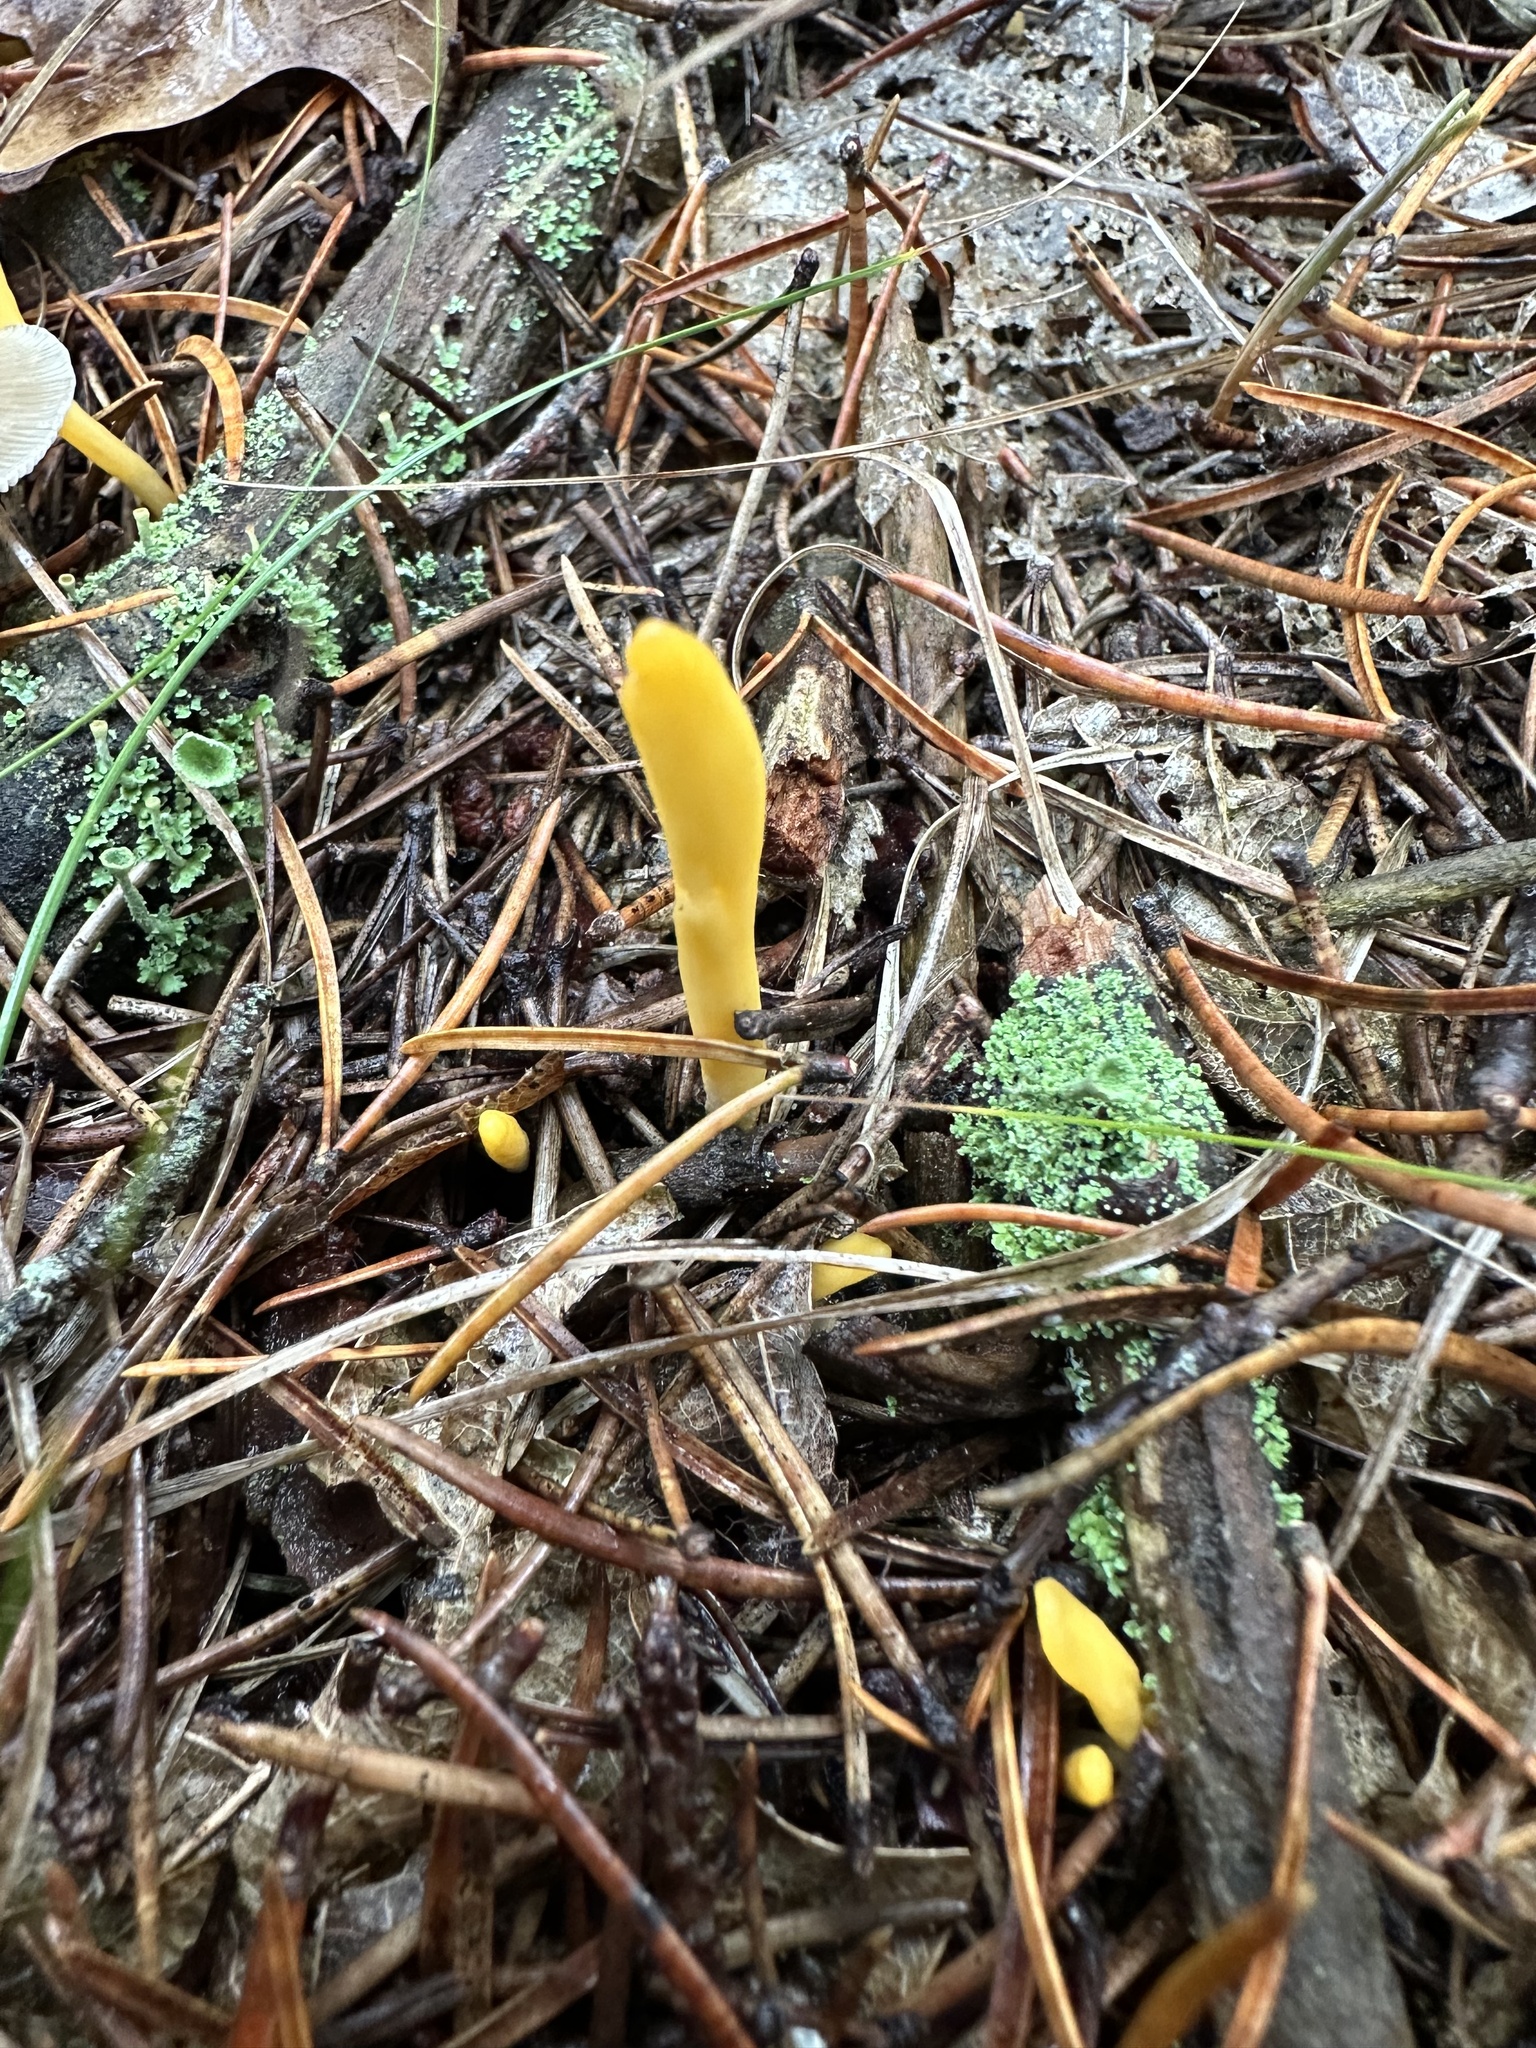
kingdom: Fungi
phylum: Ascomycota
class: Leotiomycetes
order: Leotiales
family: Leotiaceae
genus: Microglossum
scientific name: Microglossum rufum
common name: Orange earthtongue
